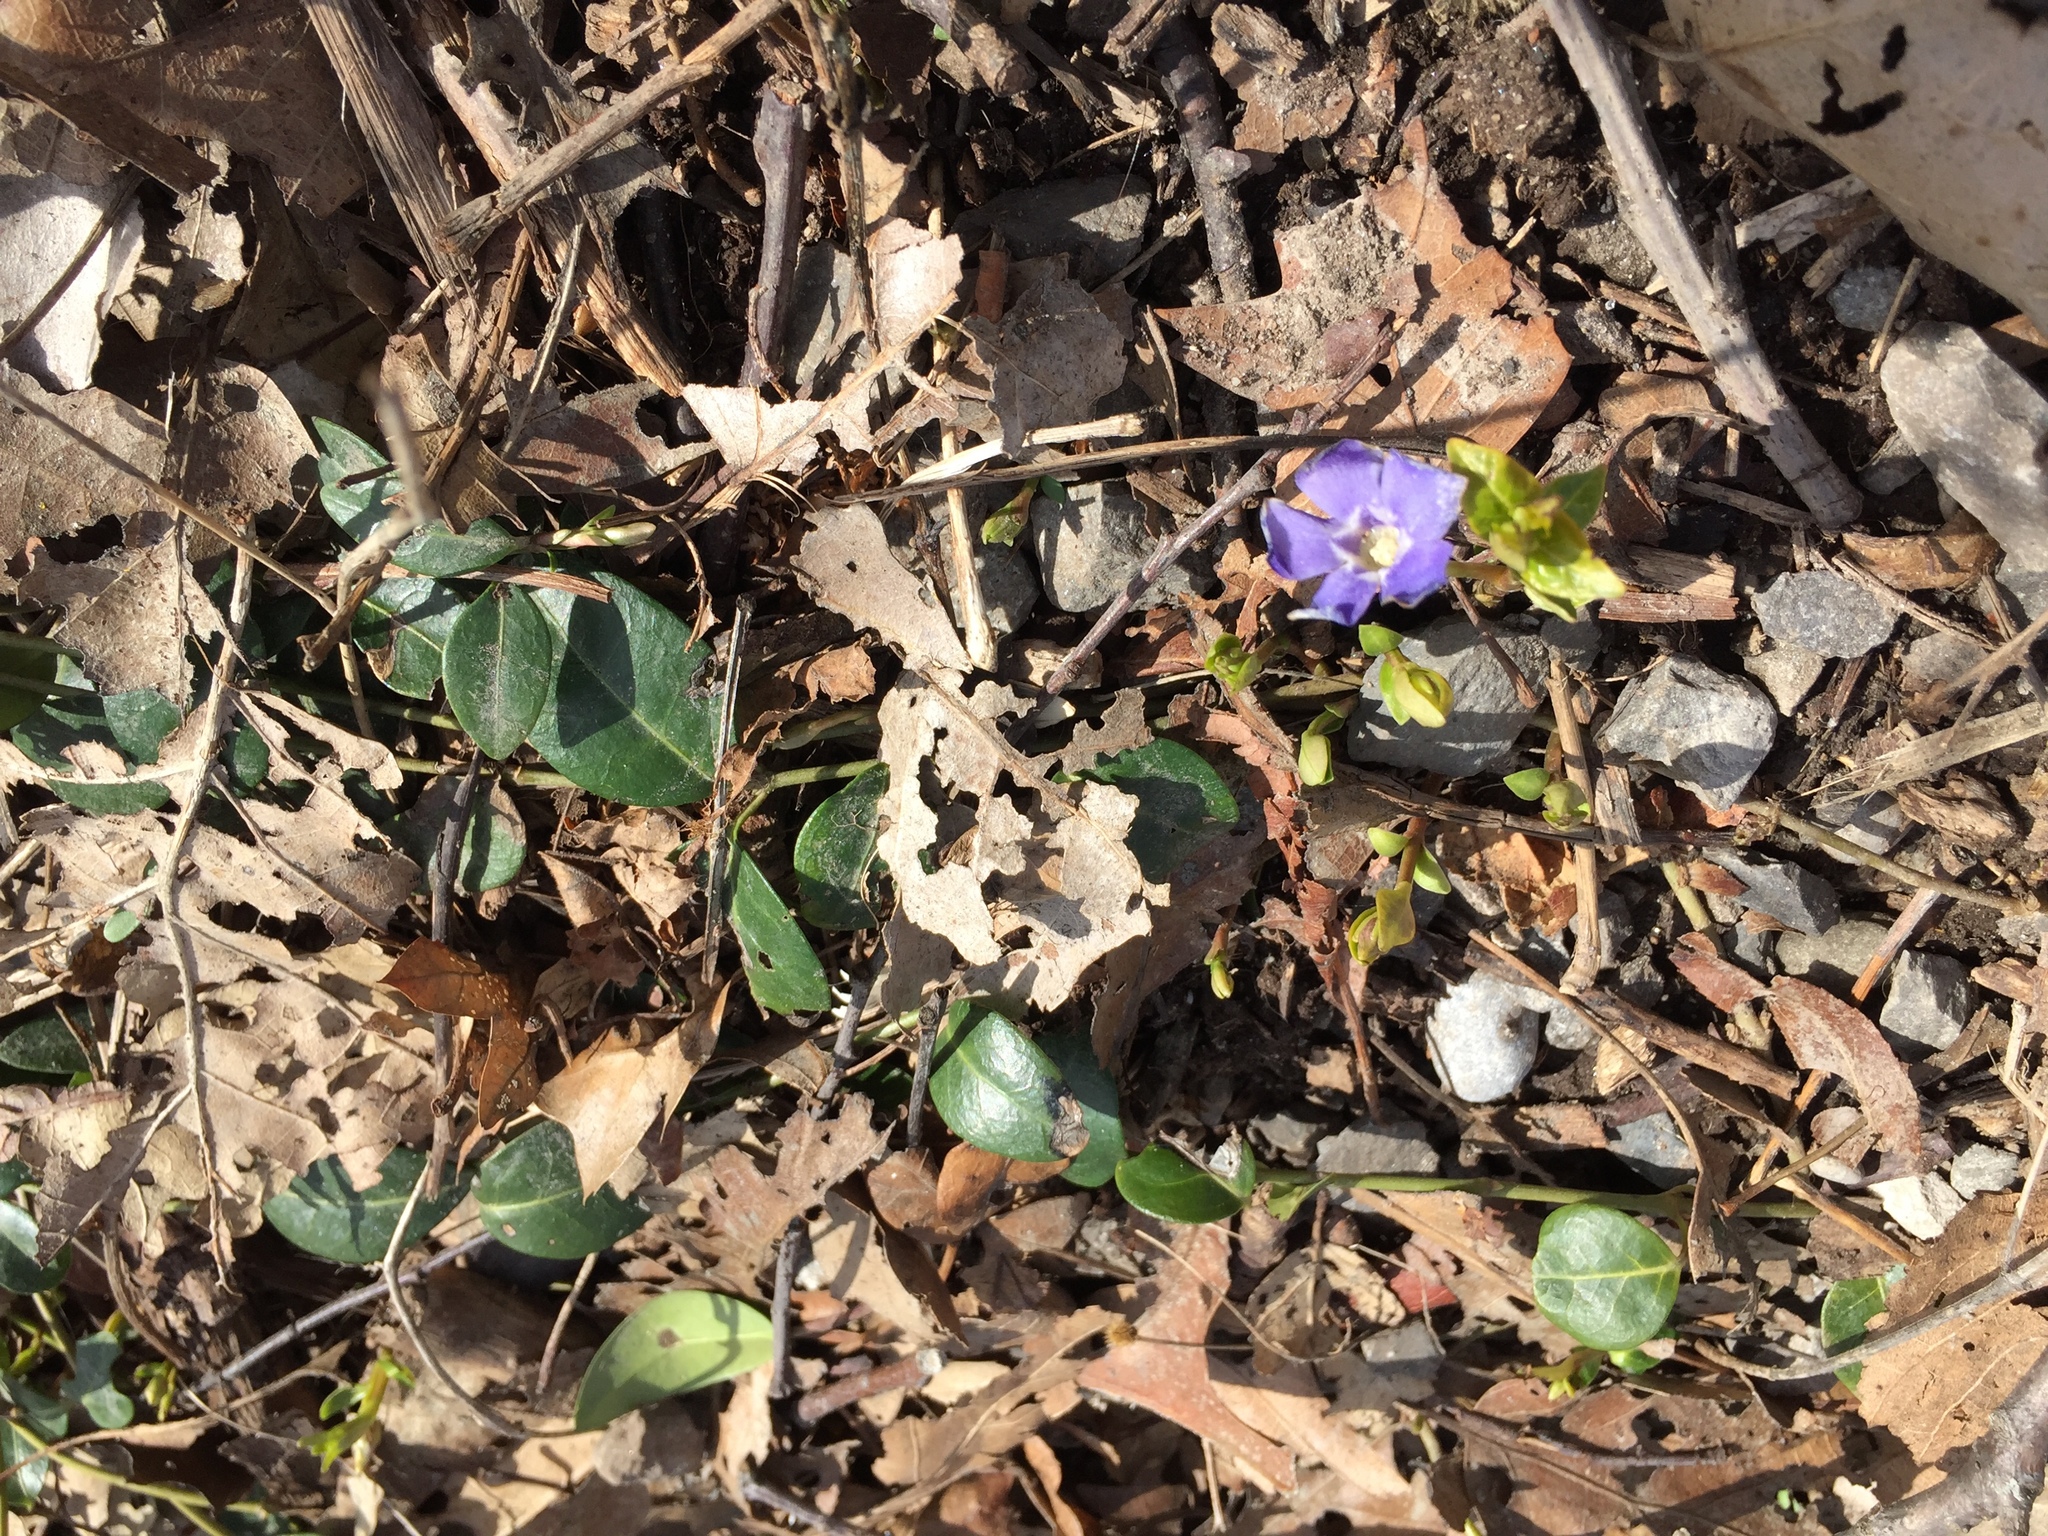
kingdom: Plantae
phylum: Tracheophyta
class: Magnoliopsida
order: Gentianales
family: Apocynaceae
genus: Vinca
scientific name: Vinca minor
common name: Lesser periwinkle
